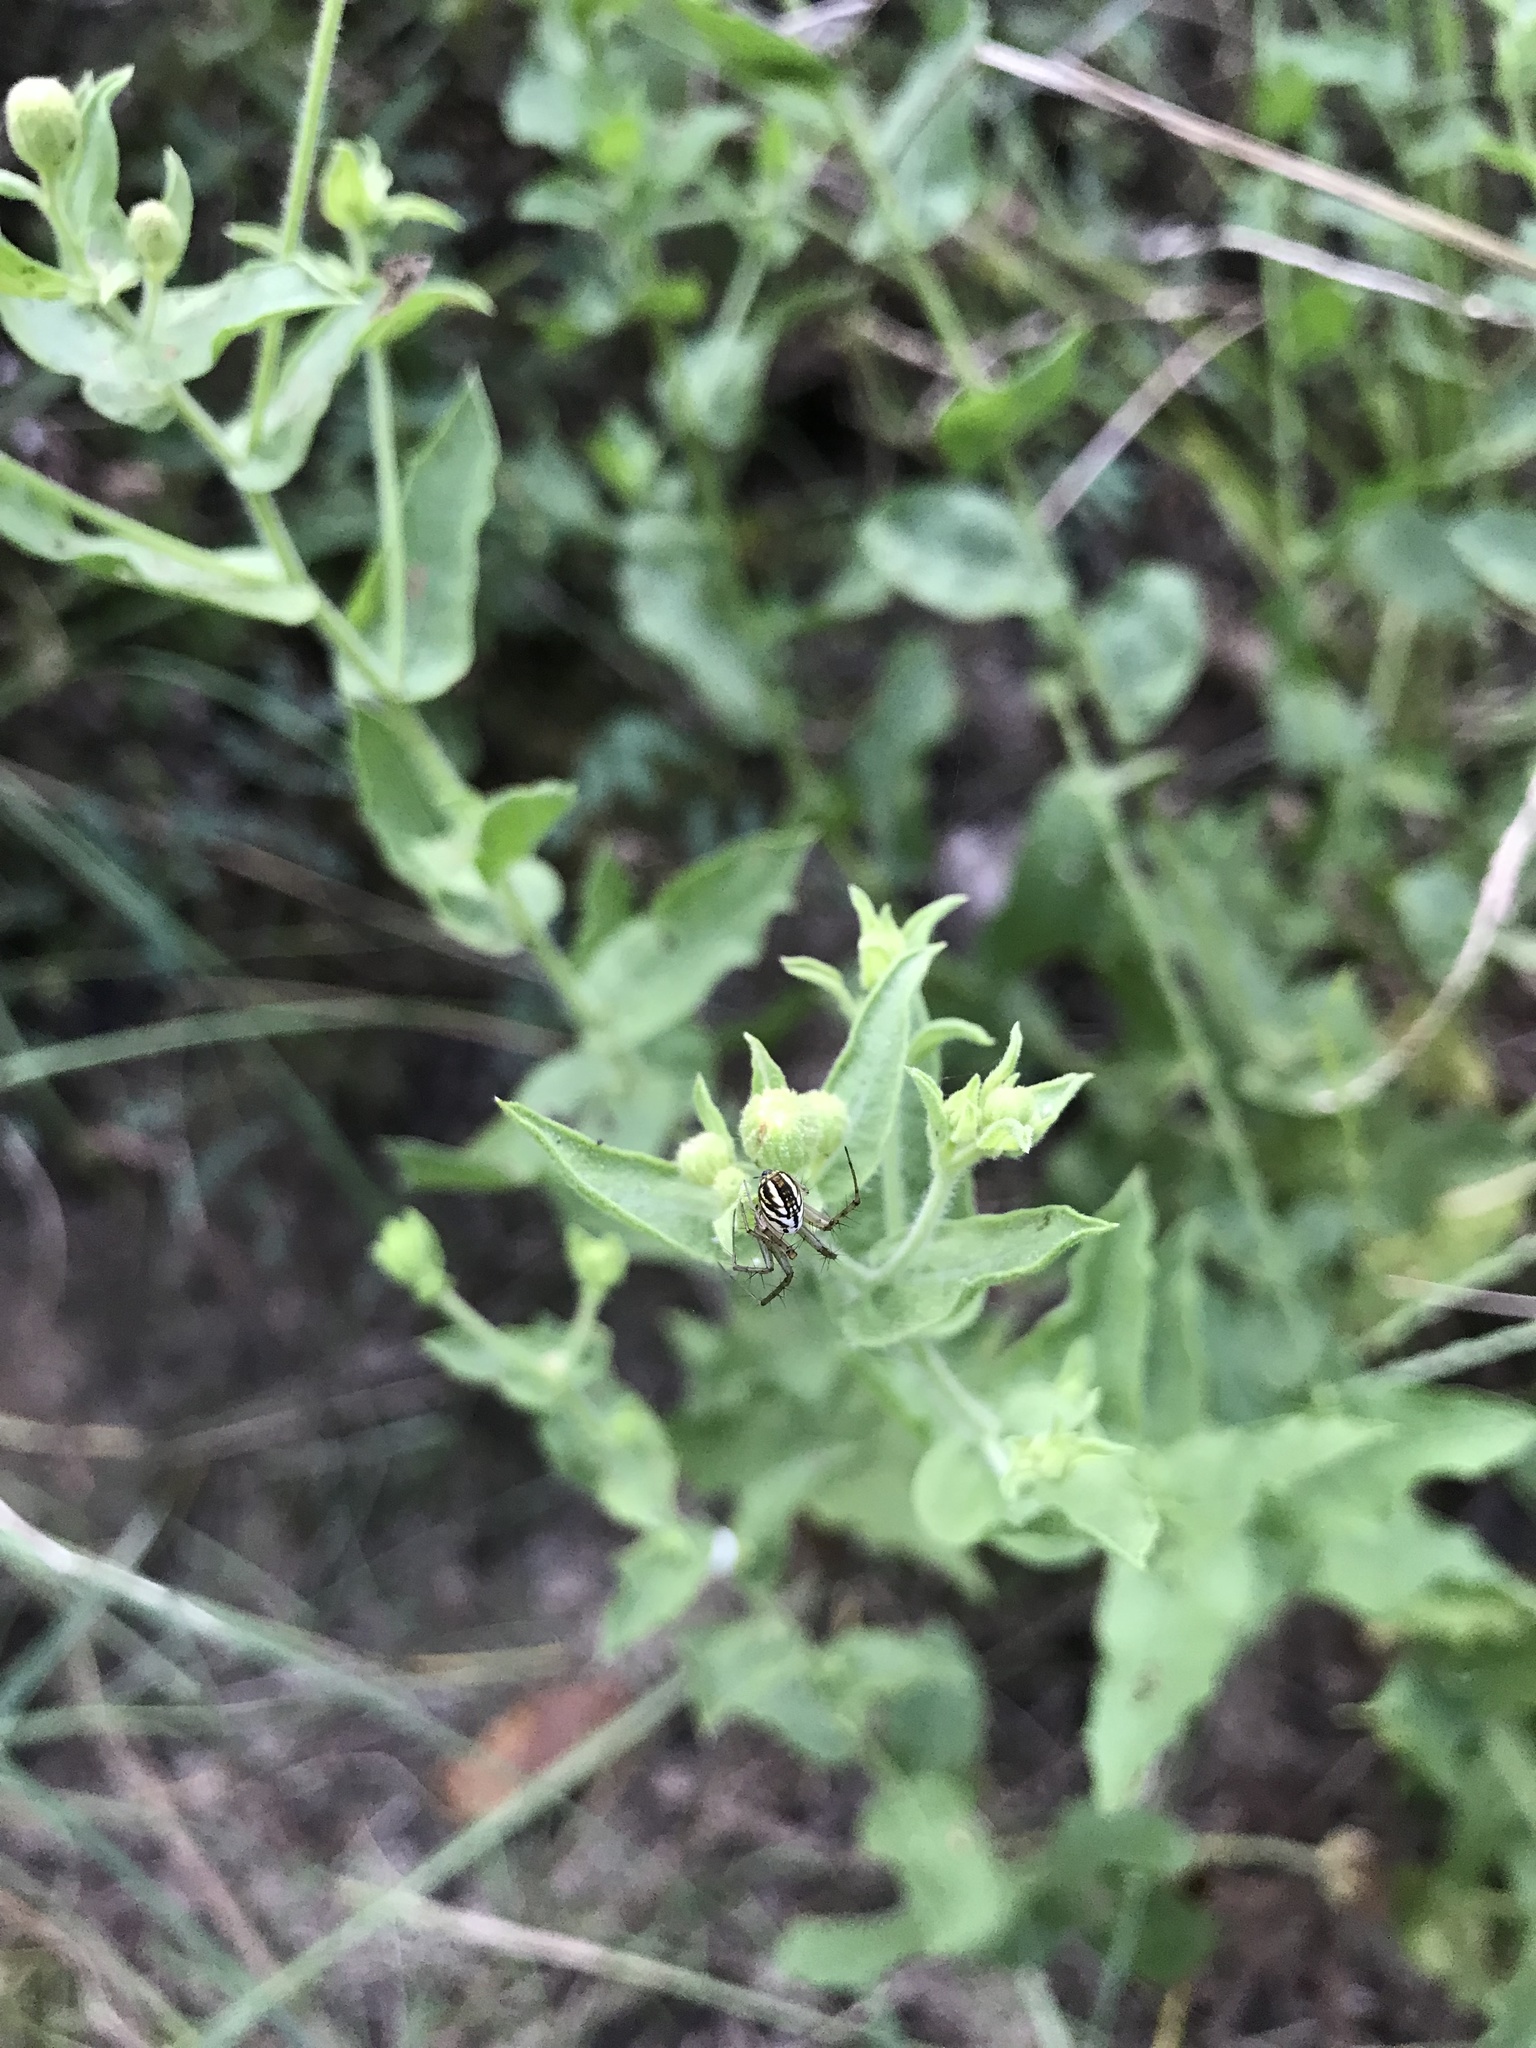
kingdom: Animalia
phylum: Arthropoda
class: Arachnida
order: Araneae
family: Araneidae
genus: Mangora
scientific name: Mangora gibberosa
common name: Lined orbweaver
